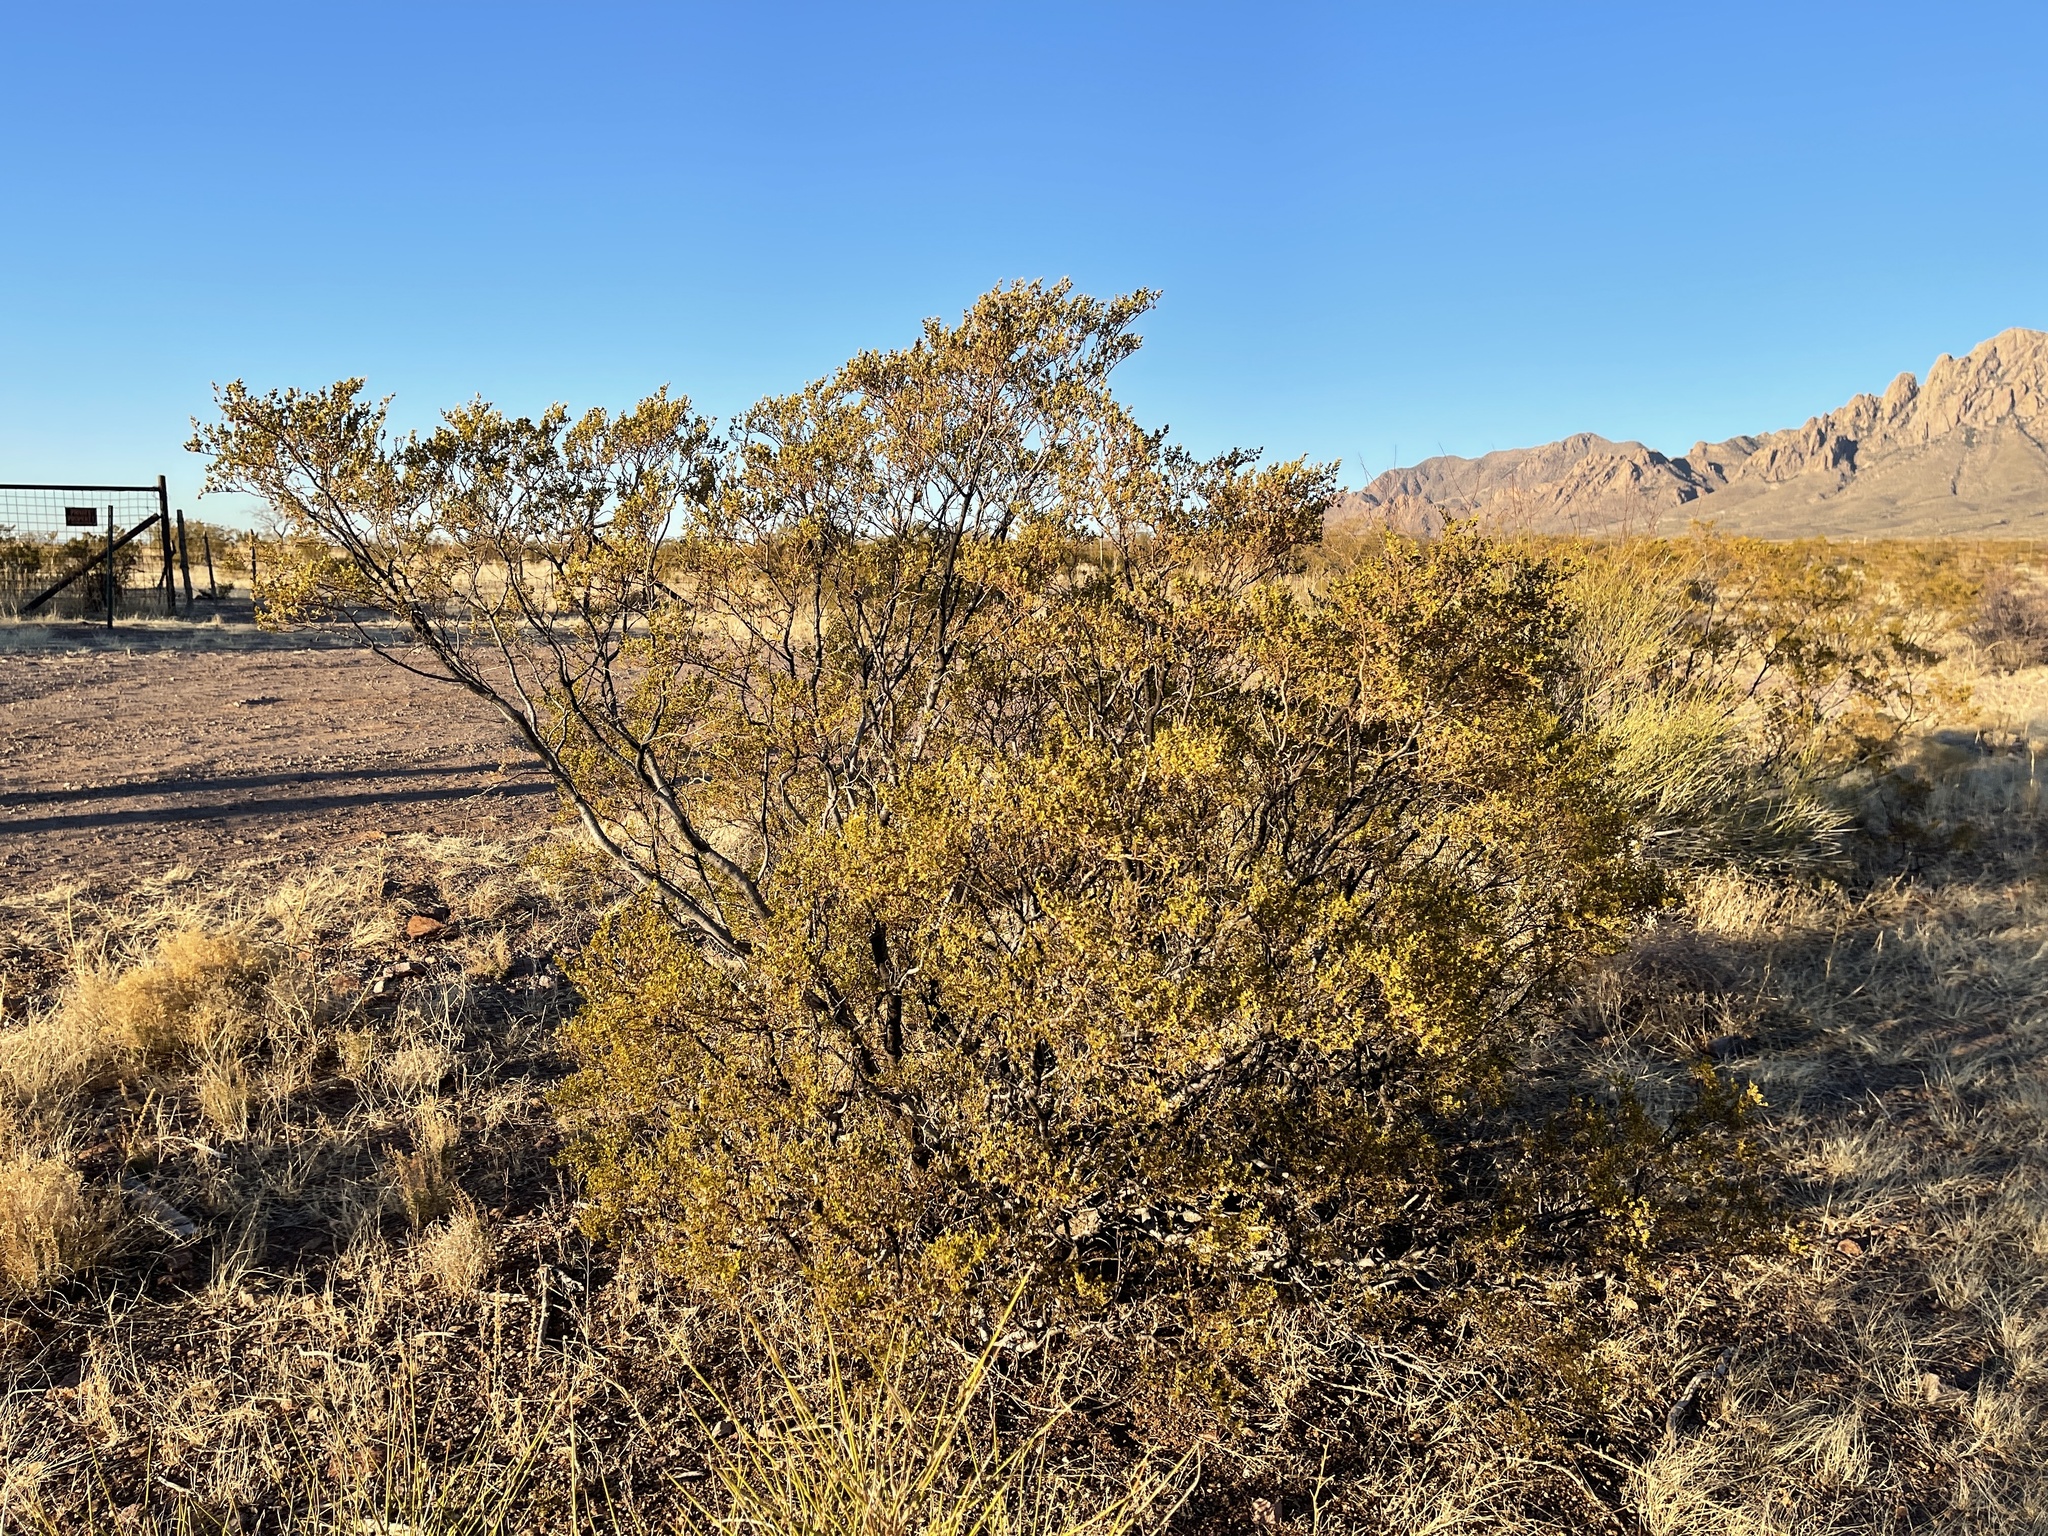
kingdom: Plantae
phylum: Tracheophyta
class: Magnoliopsida
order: Zygophyllales
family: Zygophyllaceae
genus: Larrea
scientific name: Larrea tridentata
